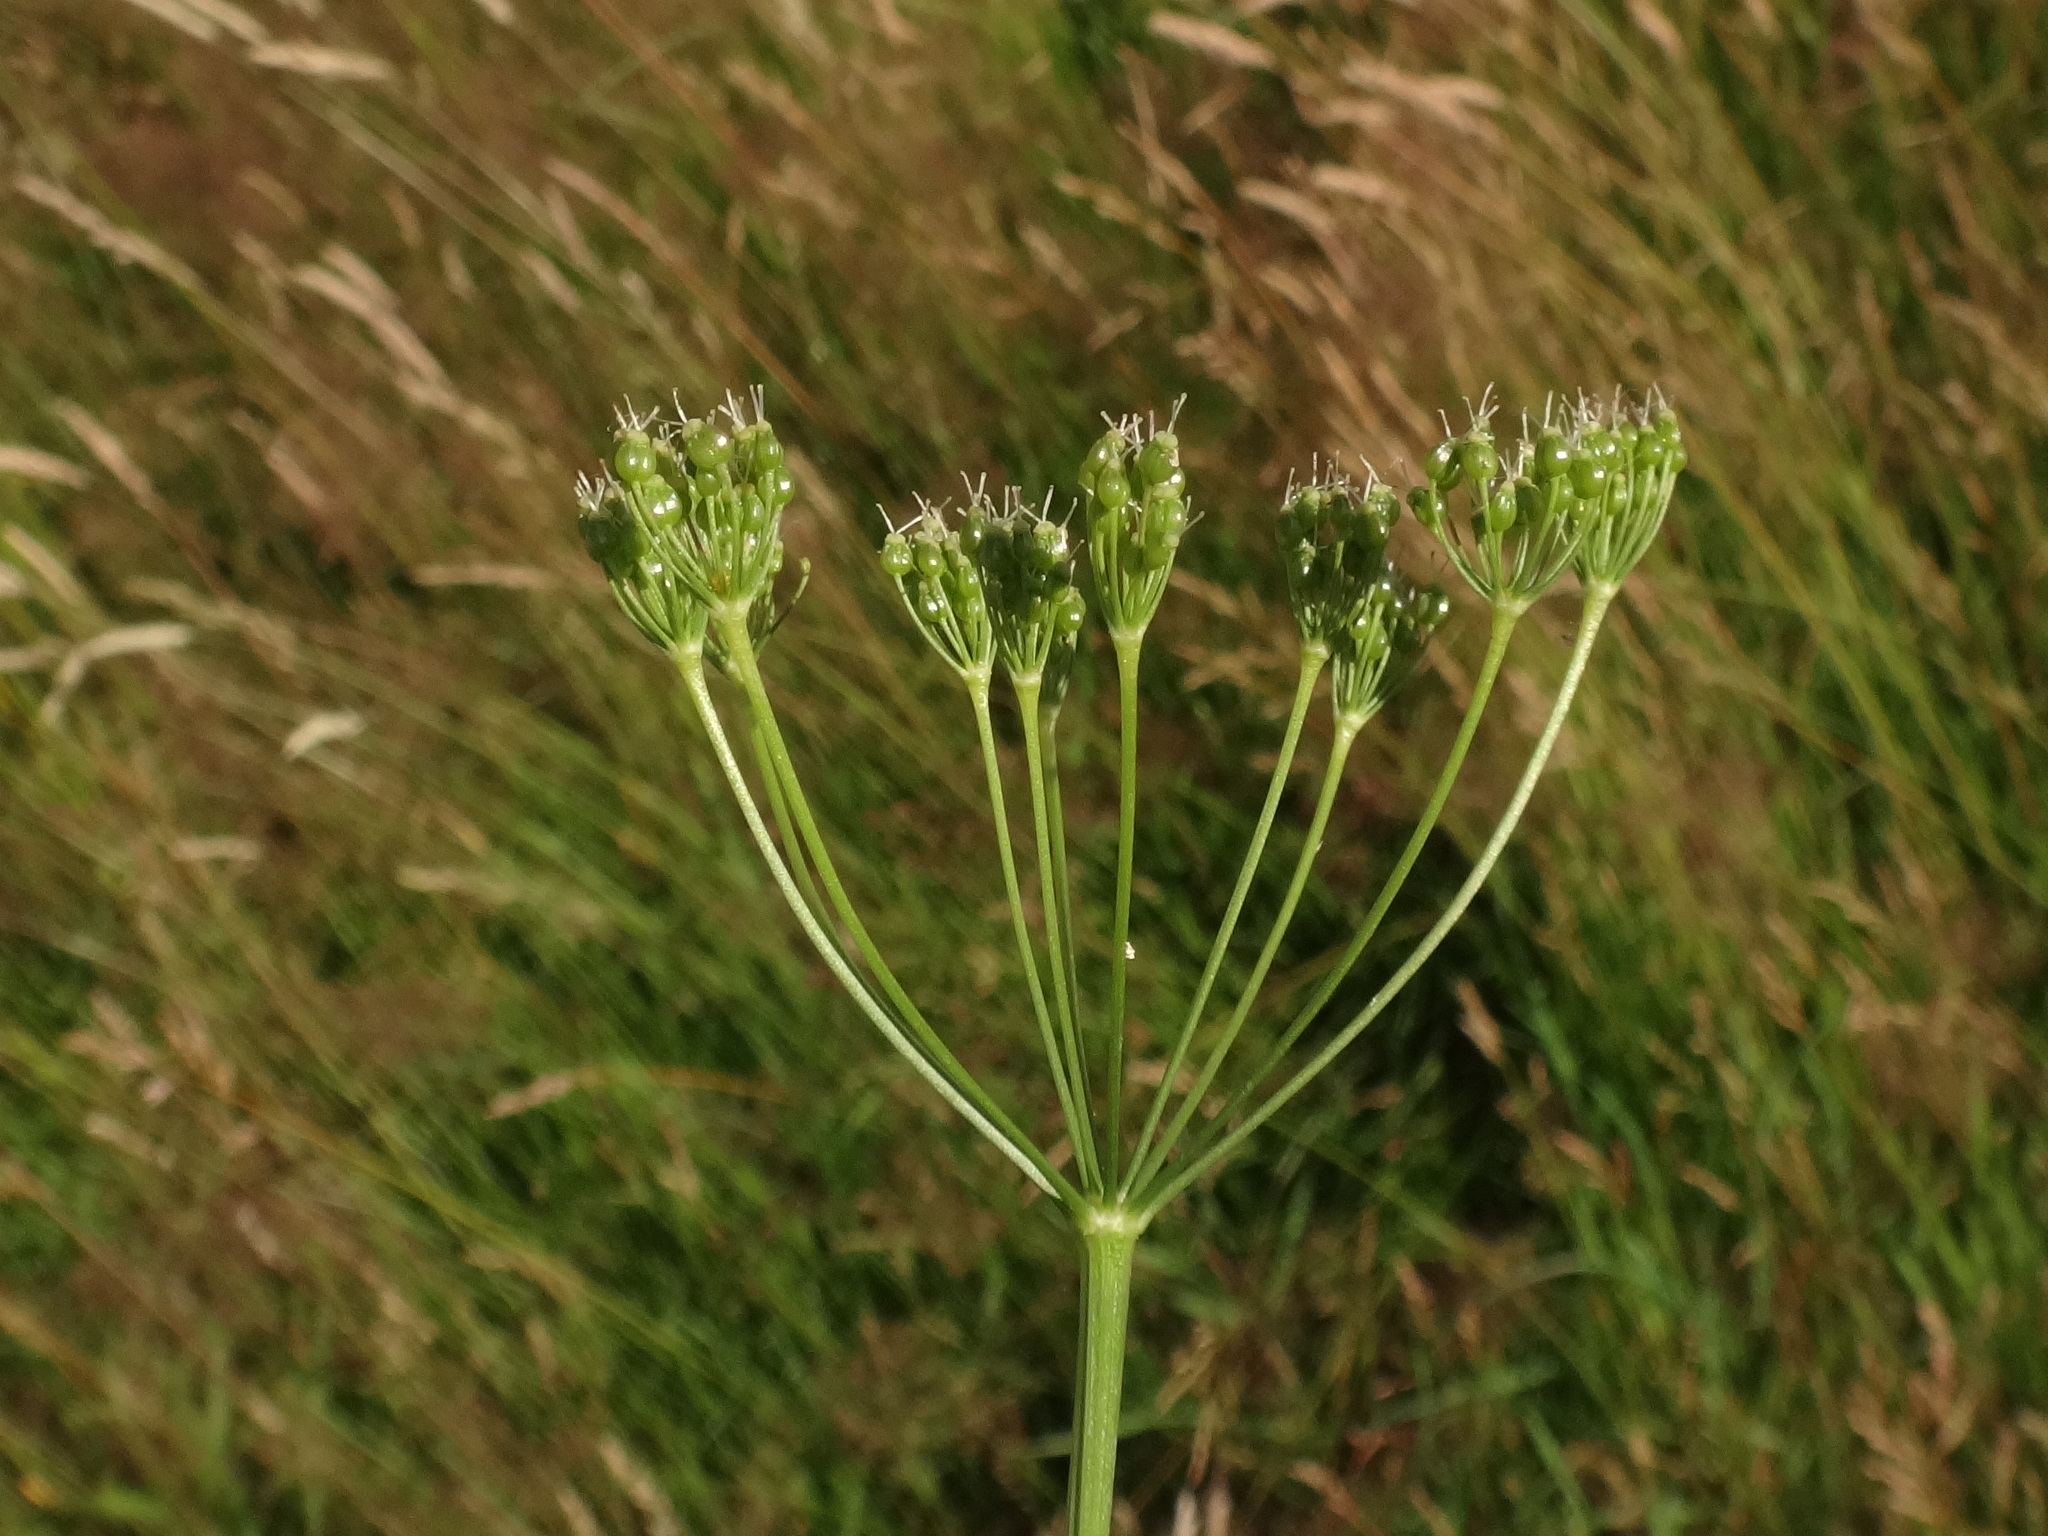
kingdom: Plantae
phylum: Tracheophyta
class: Magnoliopsida
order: Apiales
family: Apiaceae
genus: Pimpinella
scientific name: Pimpinella major
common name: Greater burnet-saxifrage
